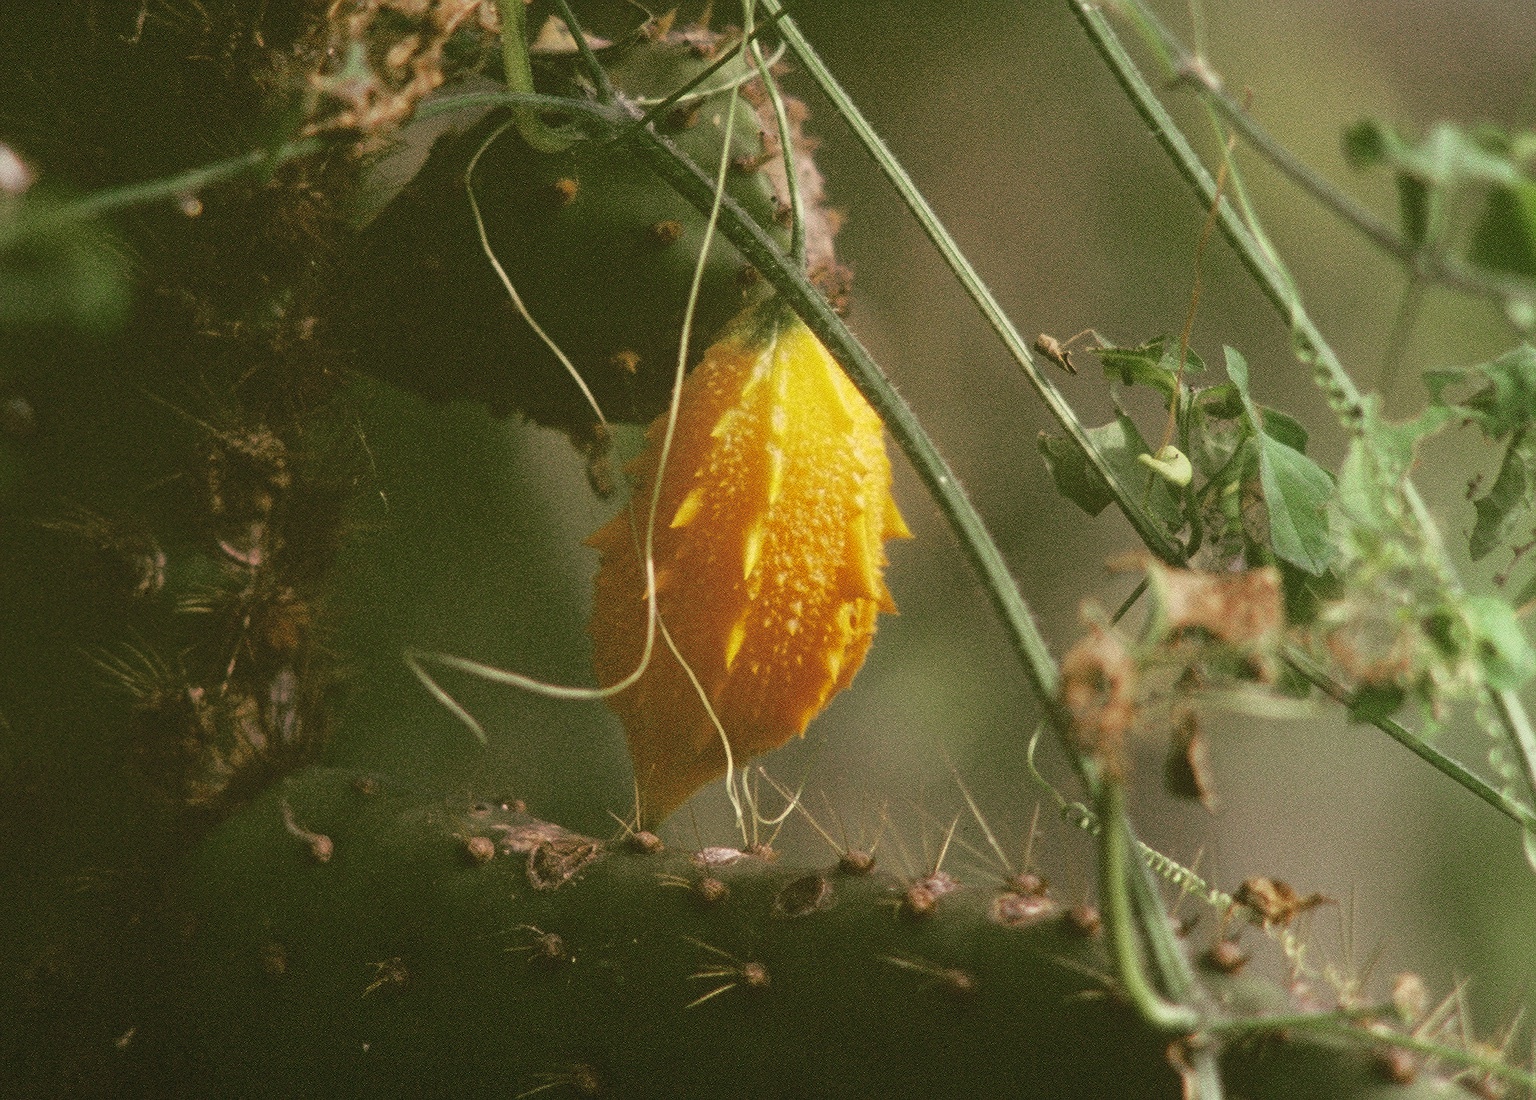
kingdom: Plantae
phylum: Tracheophyta
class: Magnoliopsida
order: Cucurbitales
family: Cucurbitaceae
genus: Momordica
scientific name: Momordica charantia
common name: Balsampear
